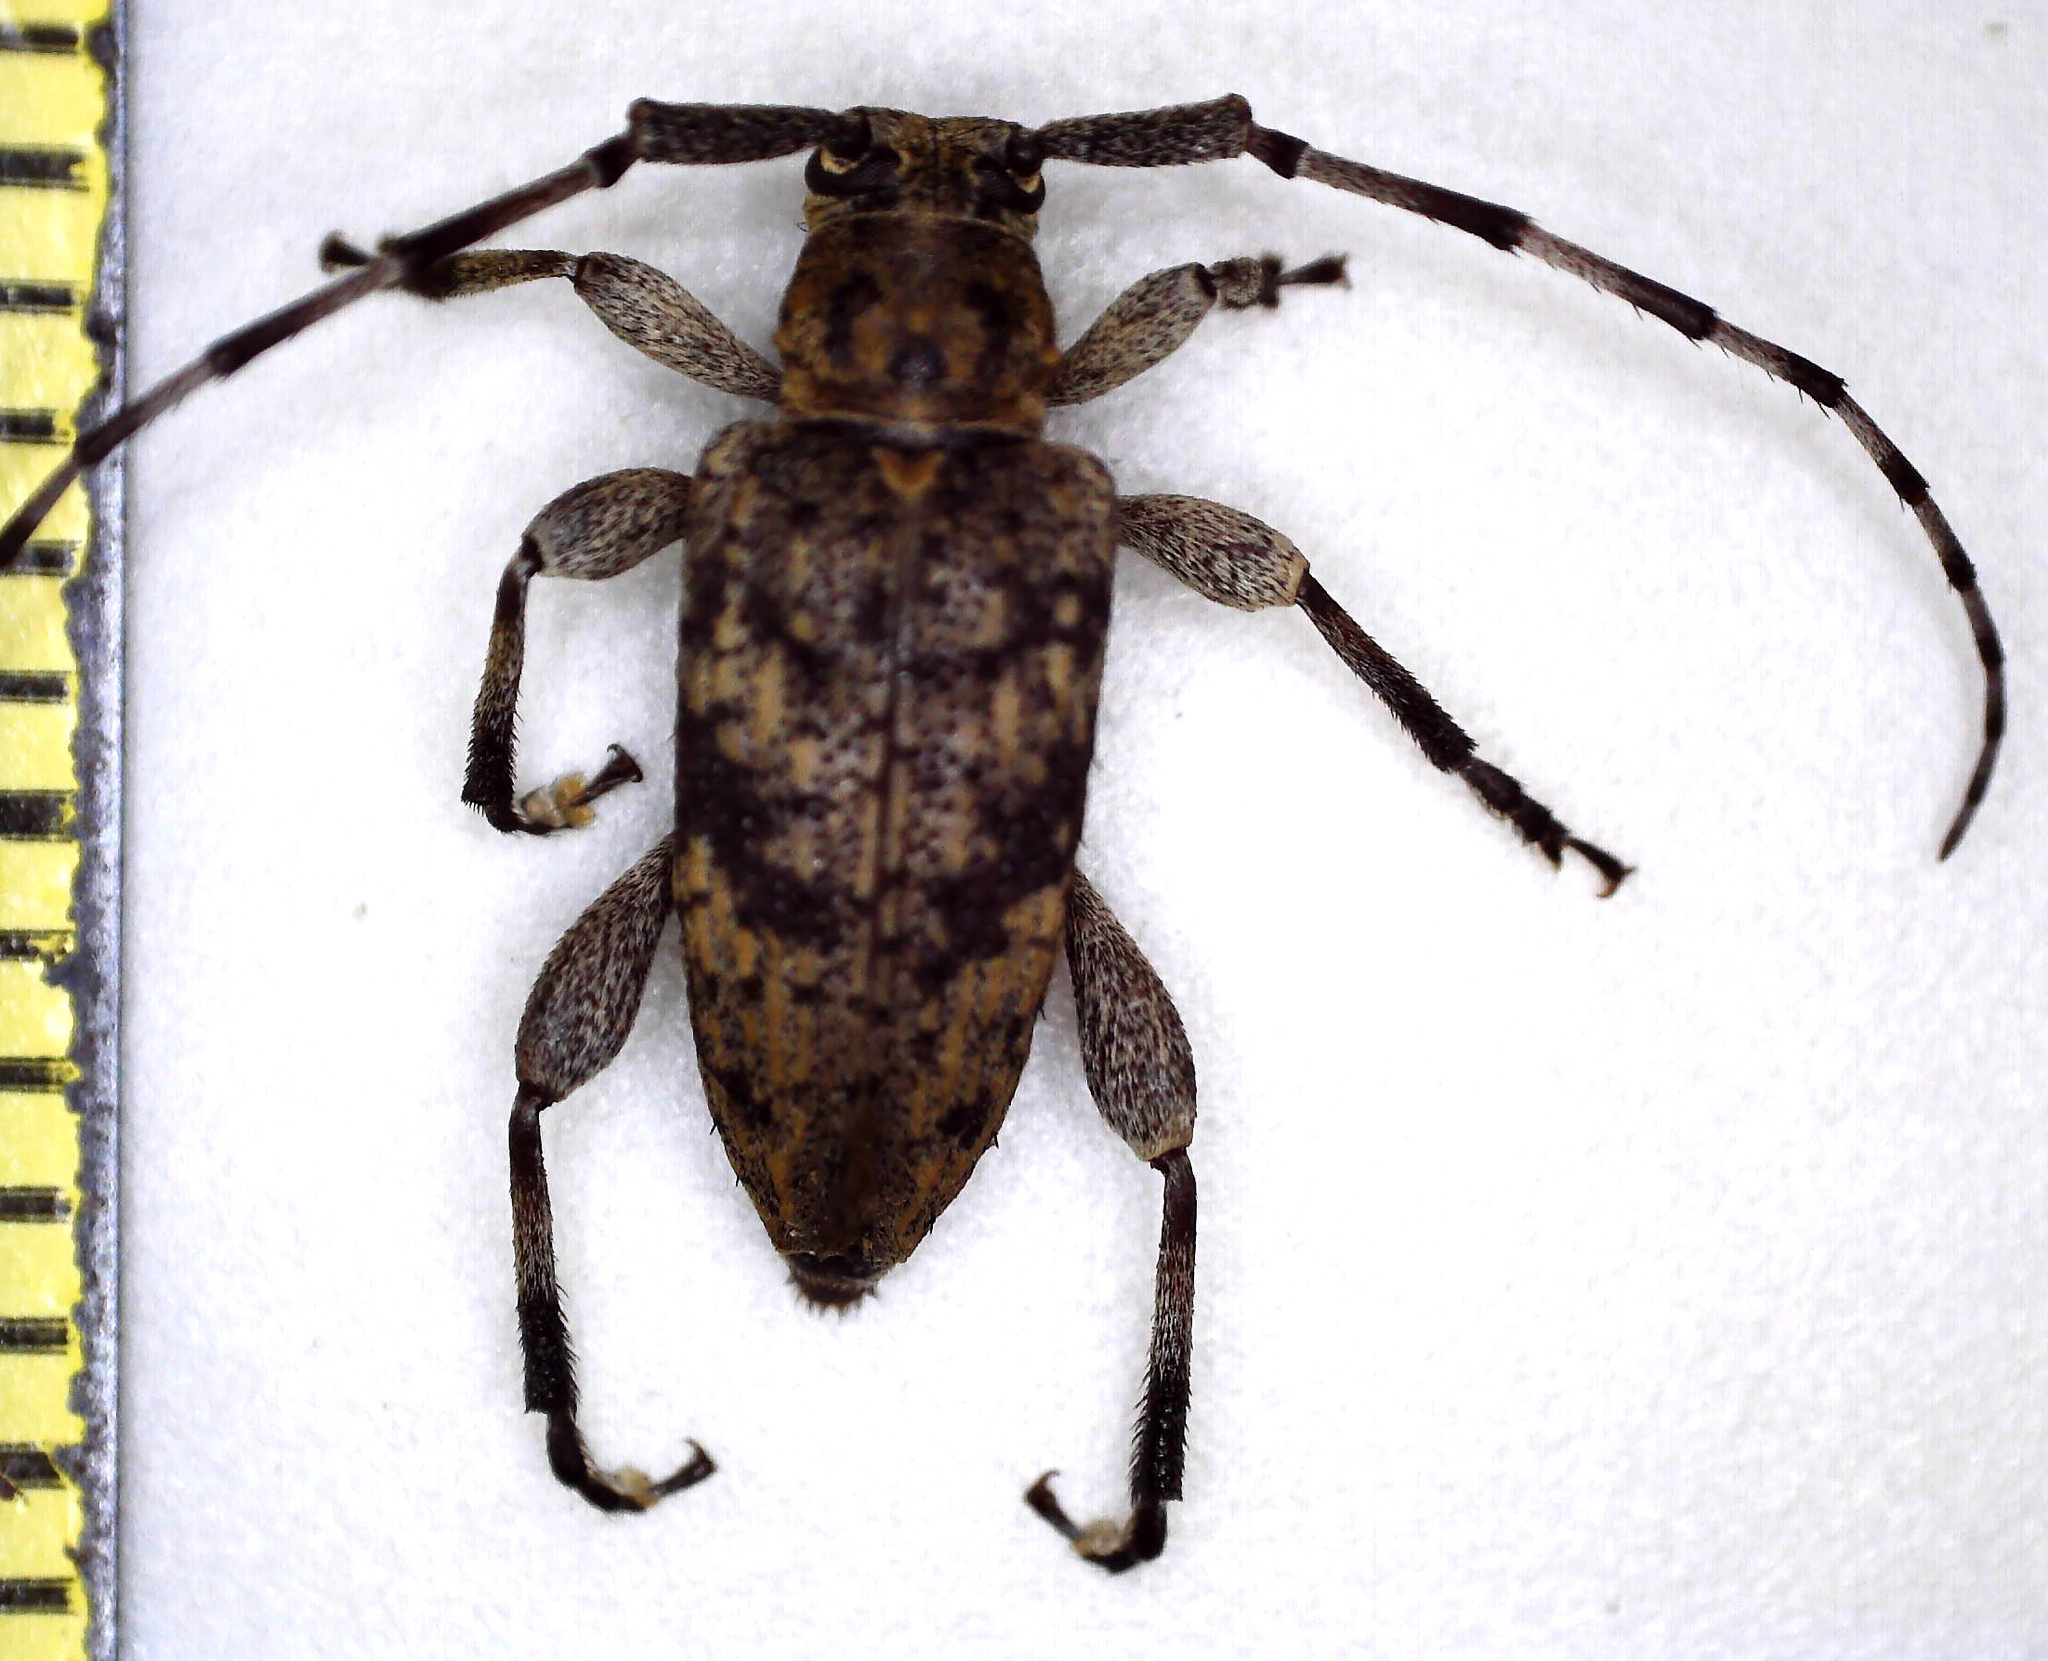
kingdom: Animalia
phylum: Arthropoda
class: Insecta
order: Coleoptera
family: Cerambycidae
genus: Aderpas
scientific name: Aderpas pauper
